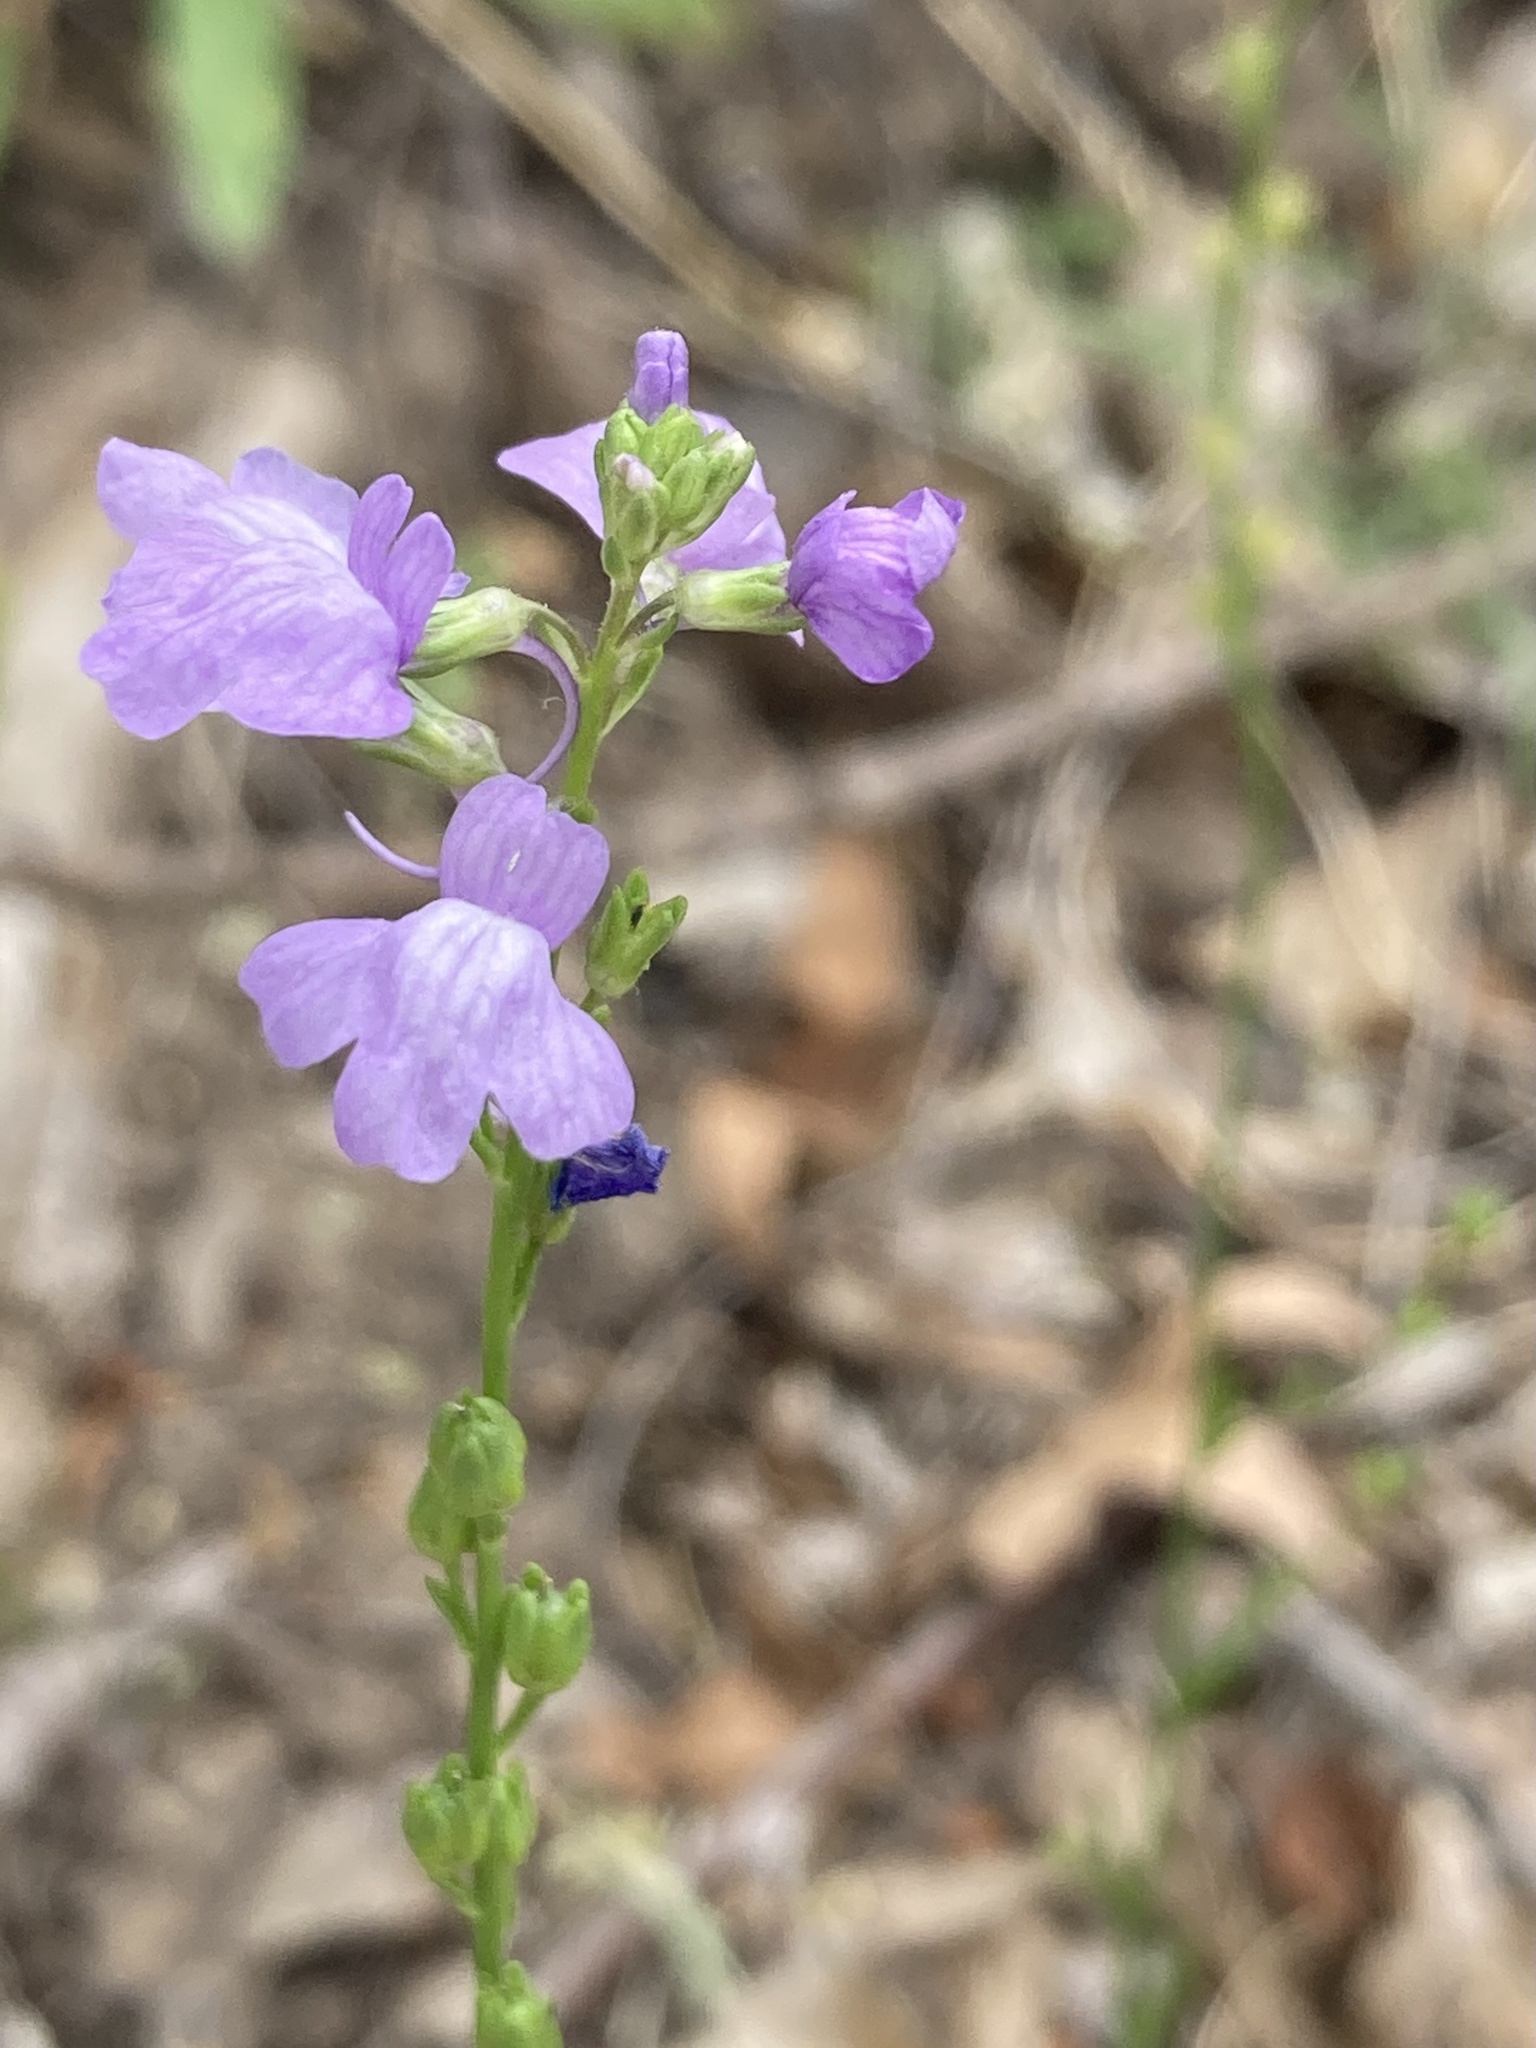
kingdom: Plantae
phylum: Tracheophyta
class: Magnoliopsida
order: Lamiales
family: Plantaginaceae
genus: Nuttallanthus
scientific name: Nuttallanthus texanus
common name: Texas toadflax
